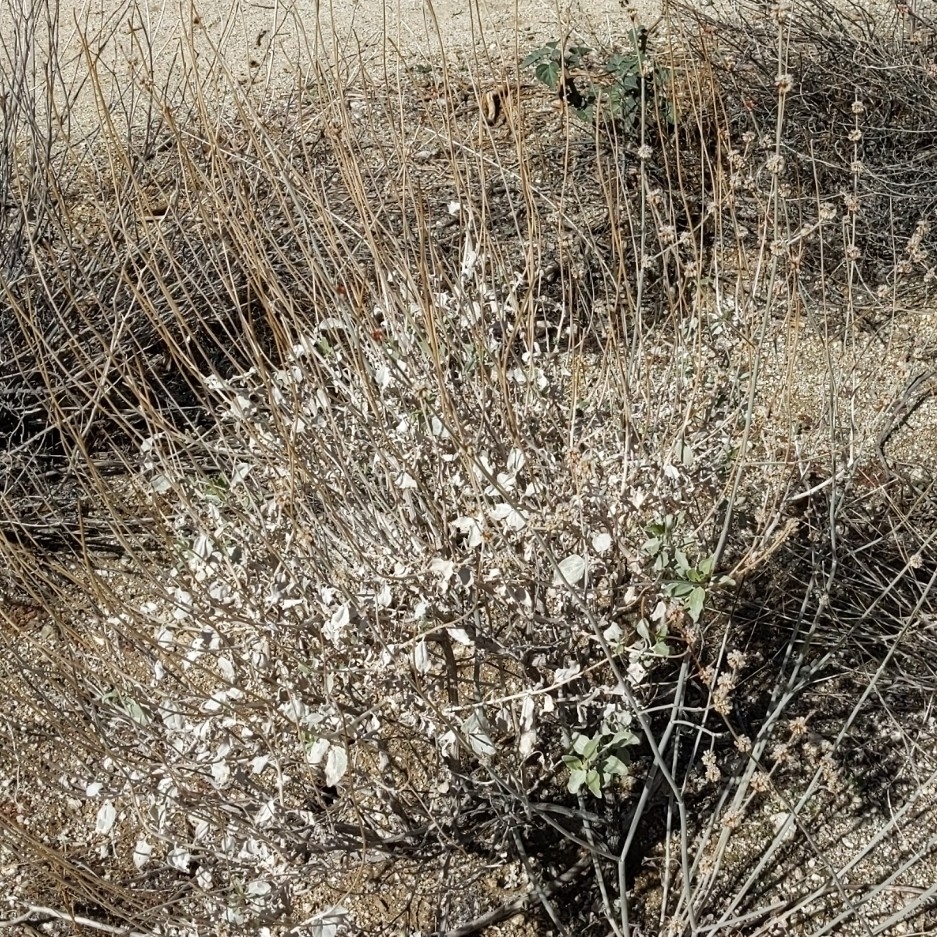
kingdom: Plantae
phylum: Tracheophyta
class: Magnoliopsida
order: Asterales
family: Asteraceae
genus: Encelia
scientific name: Encelia farinosa
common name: Brittlebush
